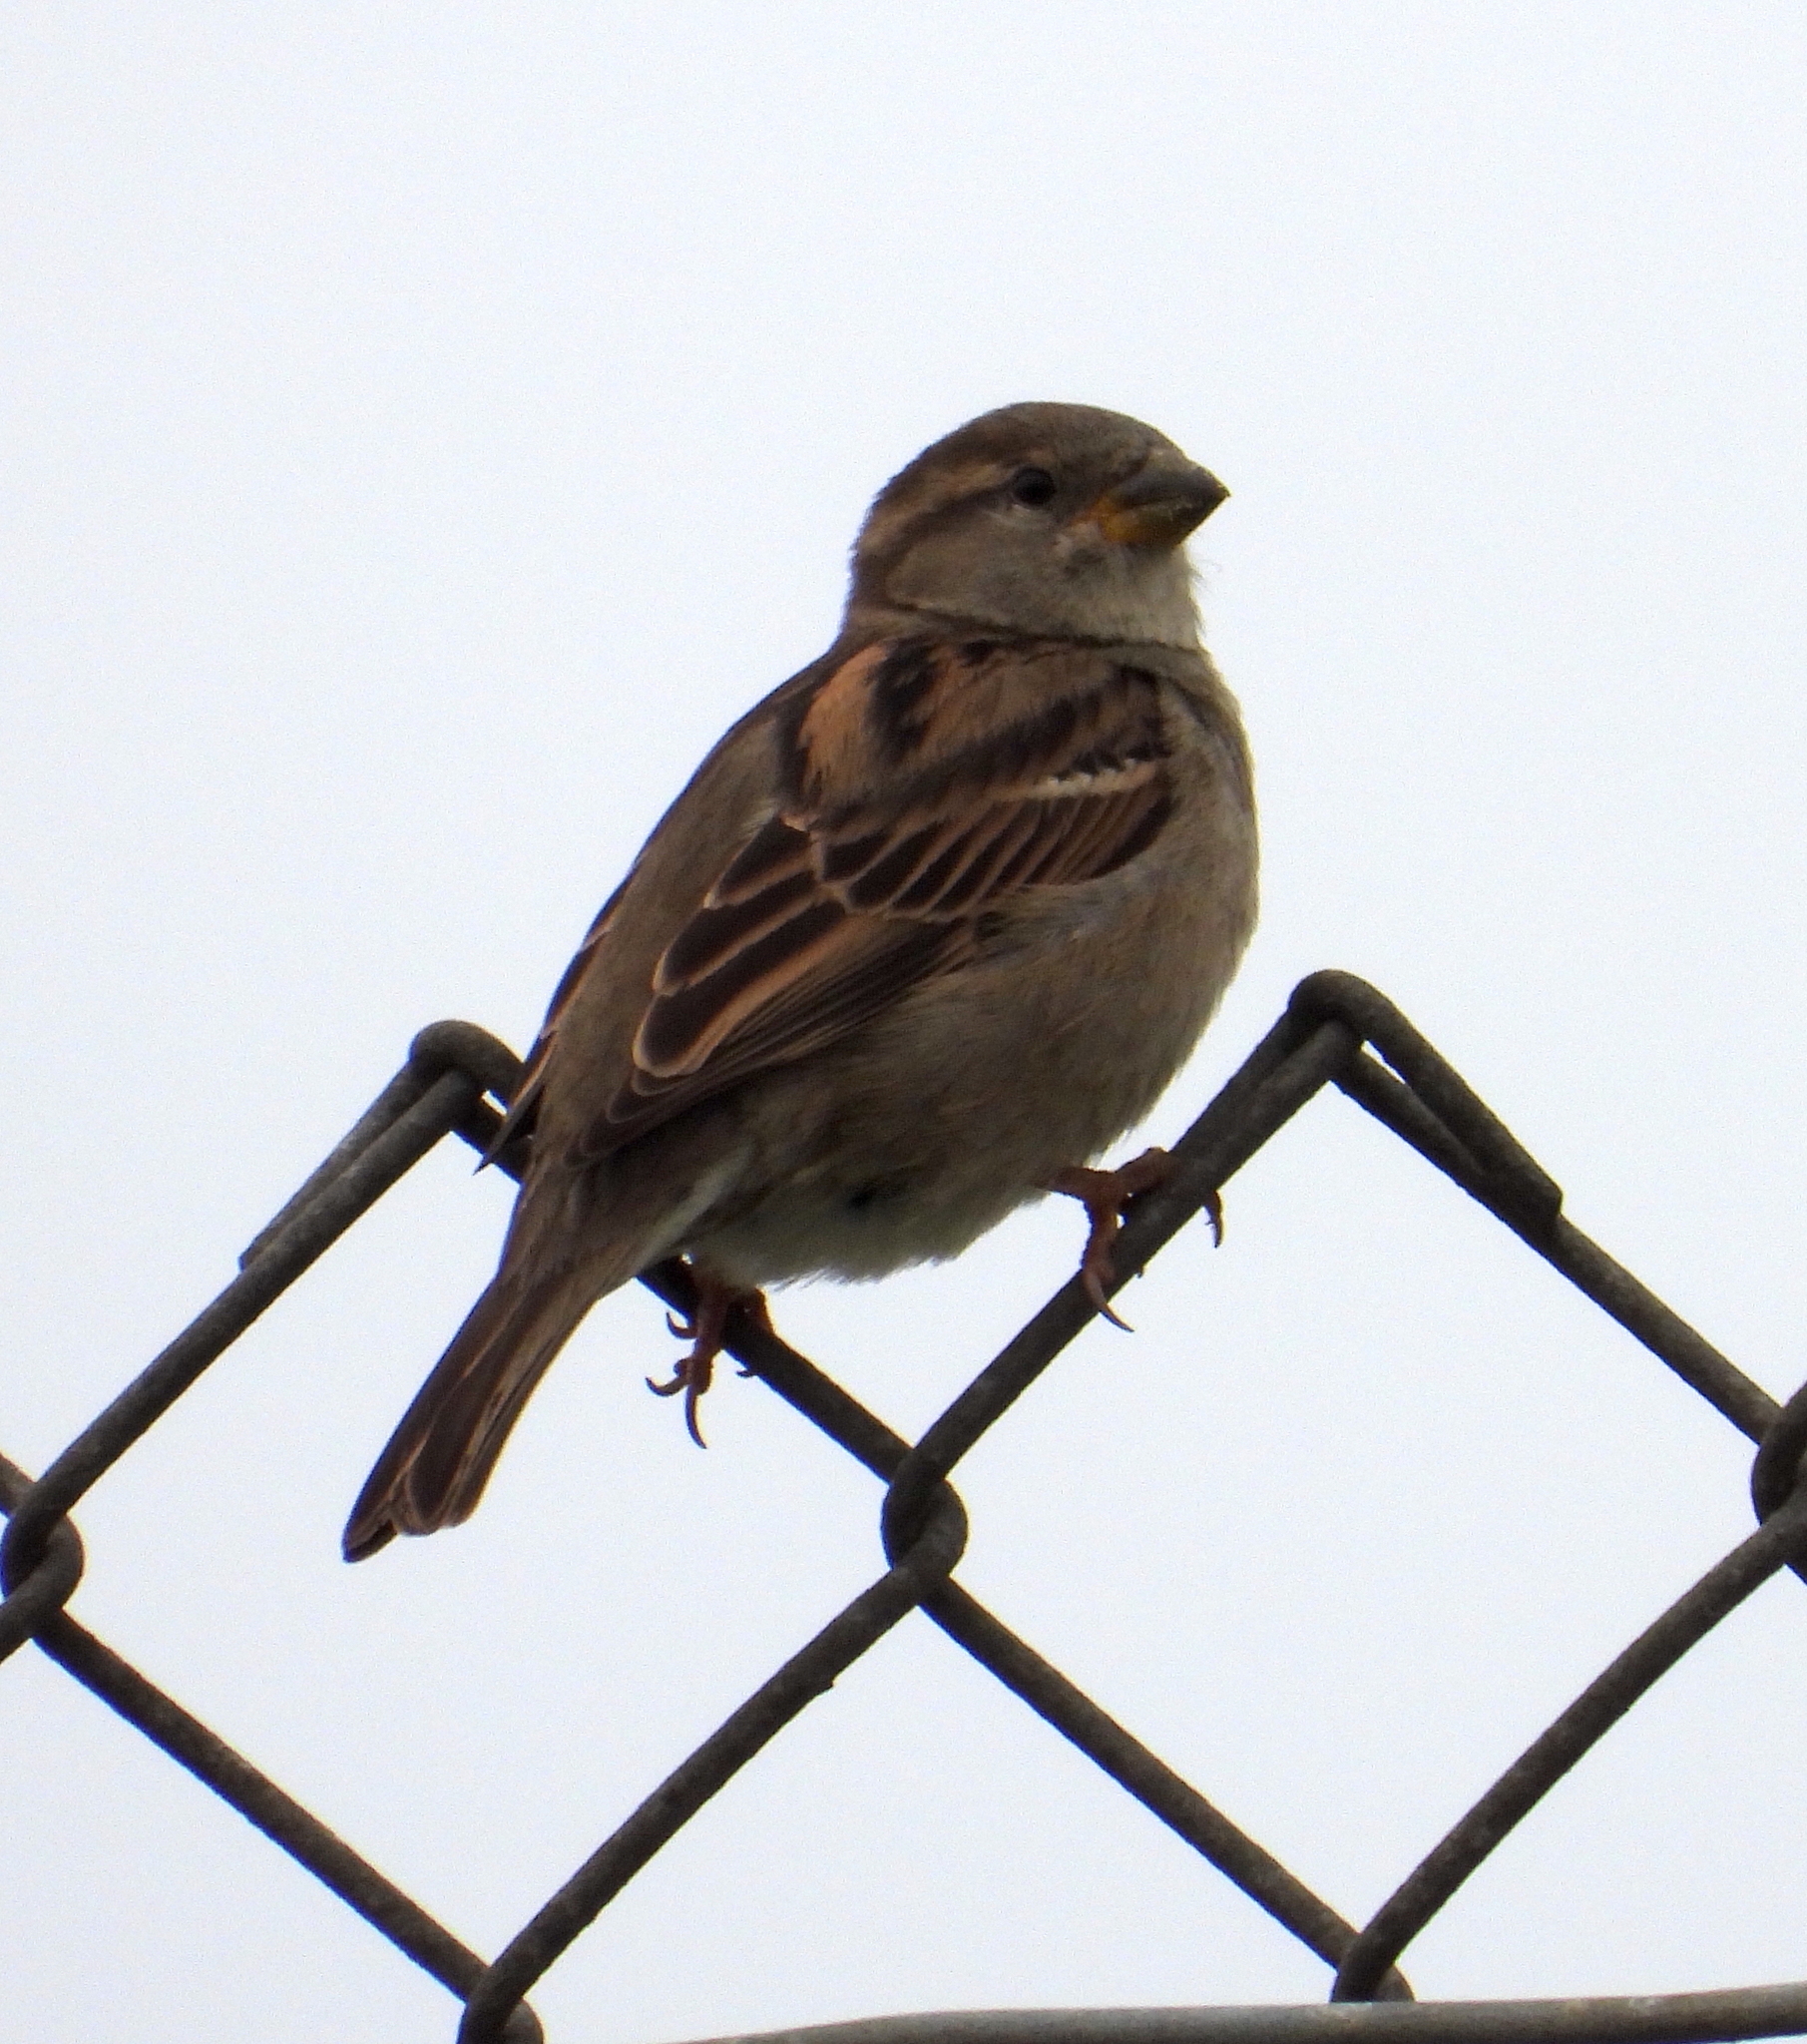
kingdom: Animalia
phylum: Chordata
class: Aves
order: Passeriformes
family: Passeridae
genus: Passer
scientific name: Passer domesticus
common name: House sparrow
